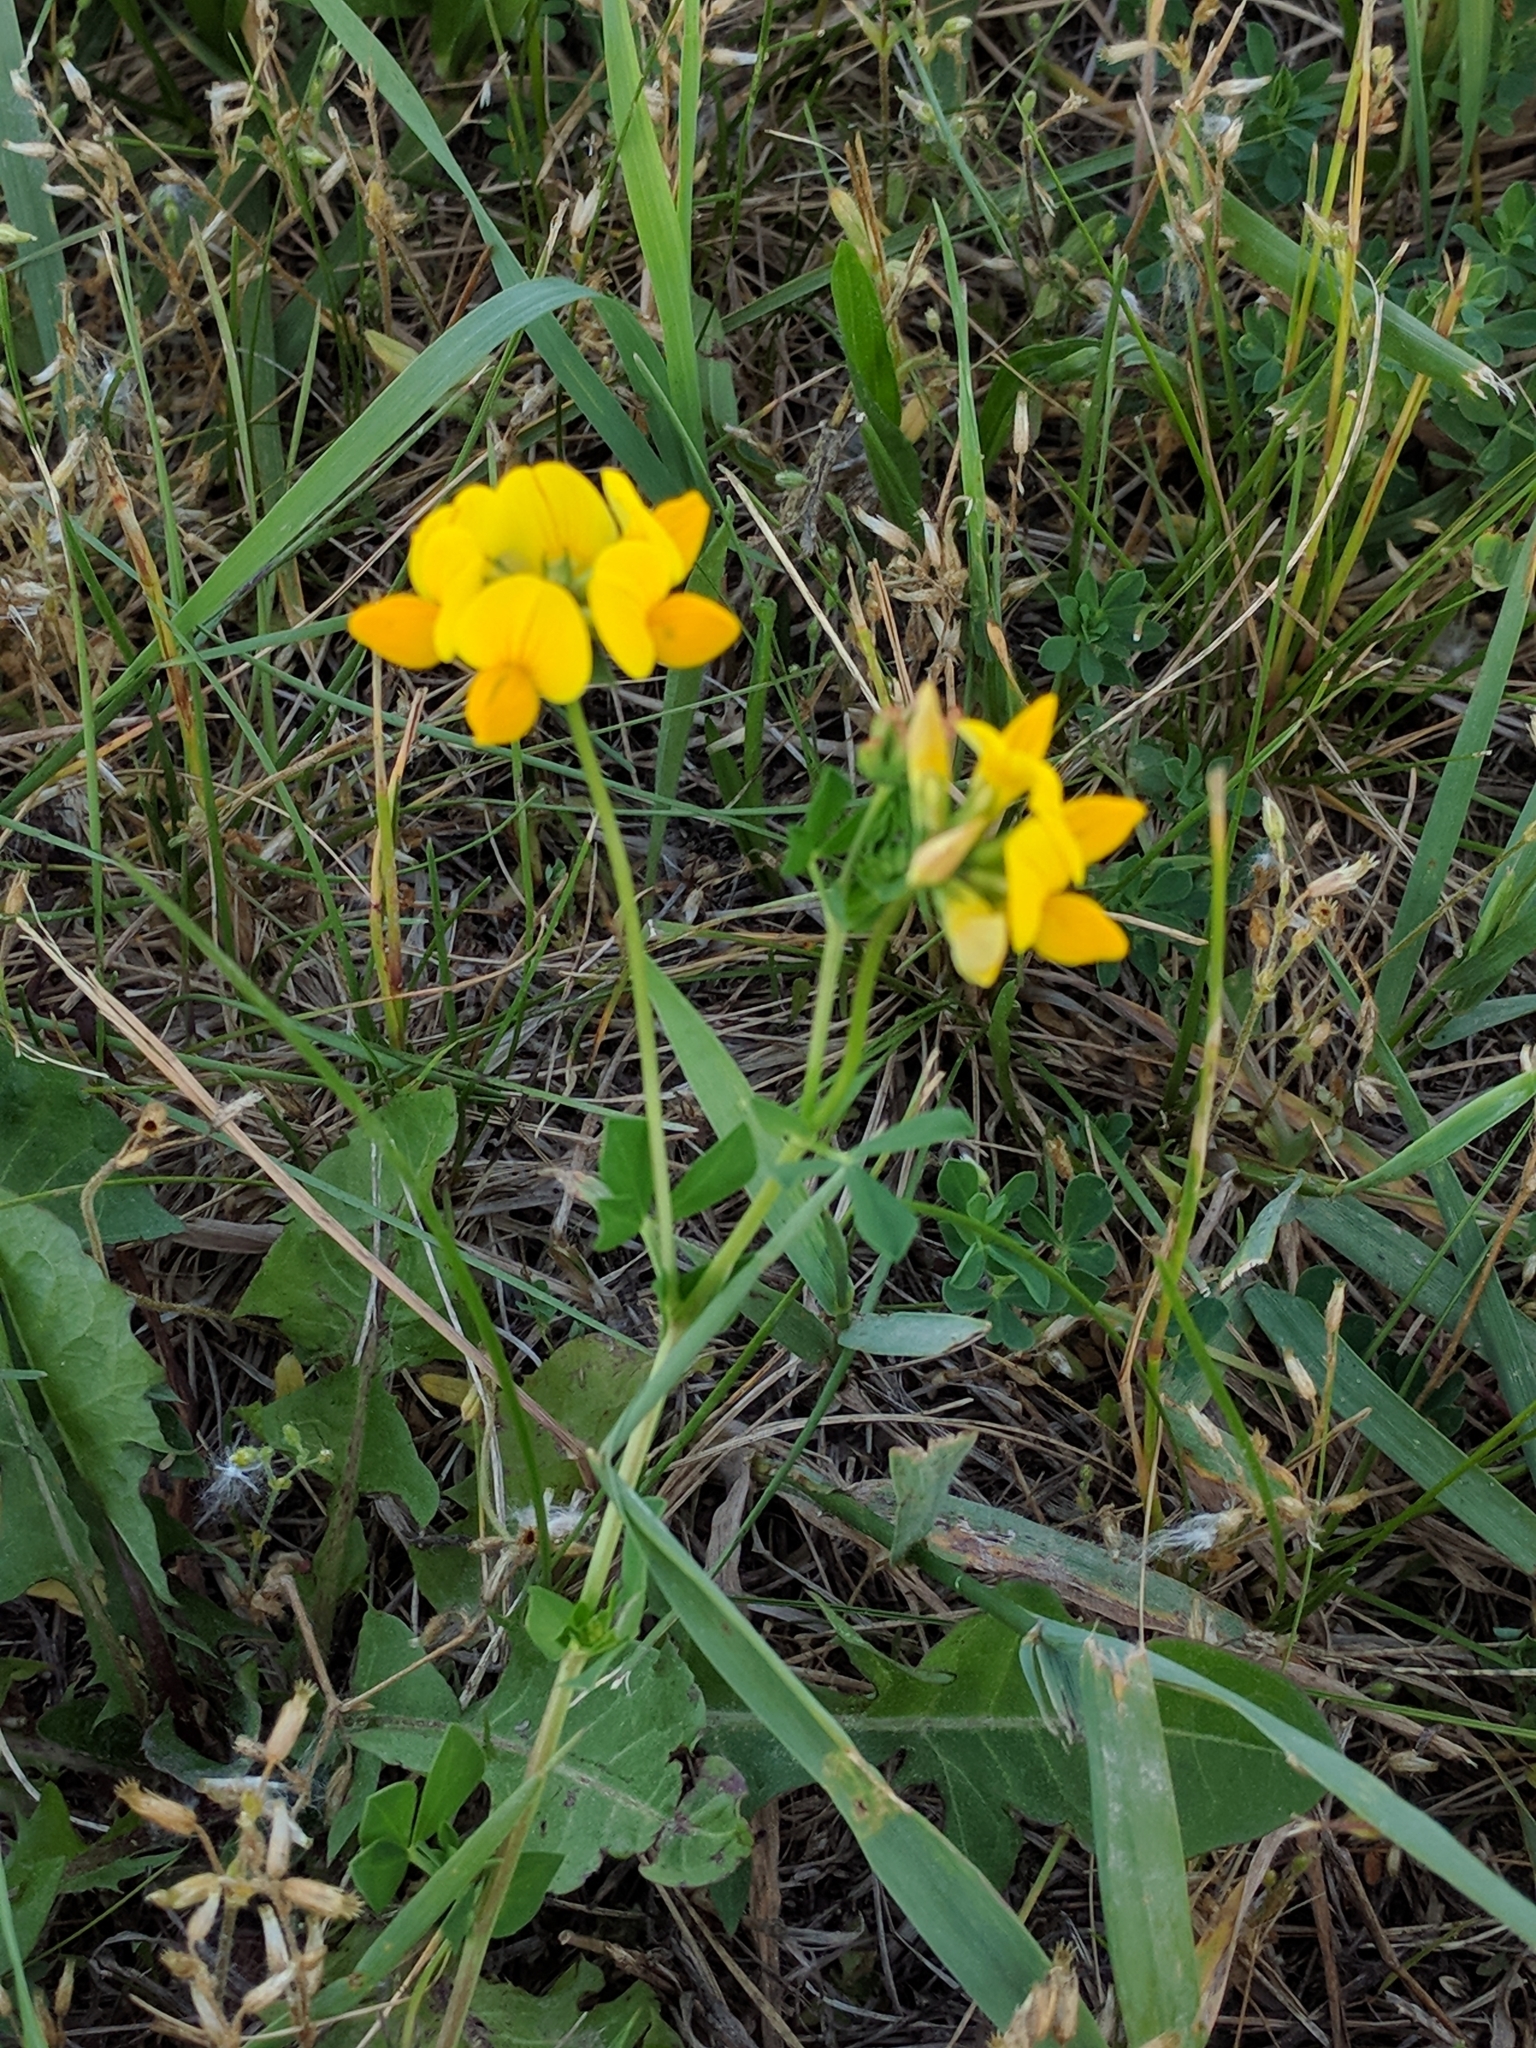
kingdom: Plantae
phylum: Tracheophyta
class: Magnoliopsida
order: Fabales
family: Fabaceae
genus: Lotus
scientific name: Lotus corniculatus
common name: Common bird's-foot-trefoil
